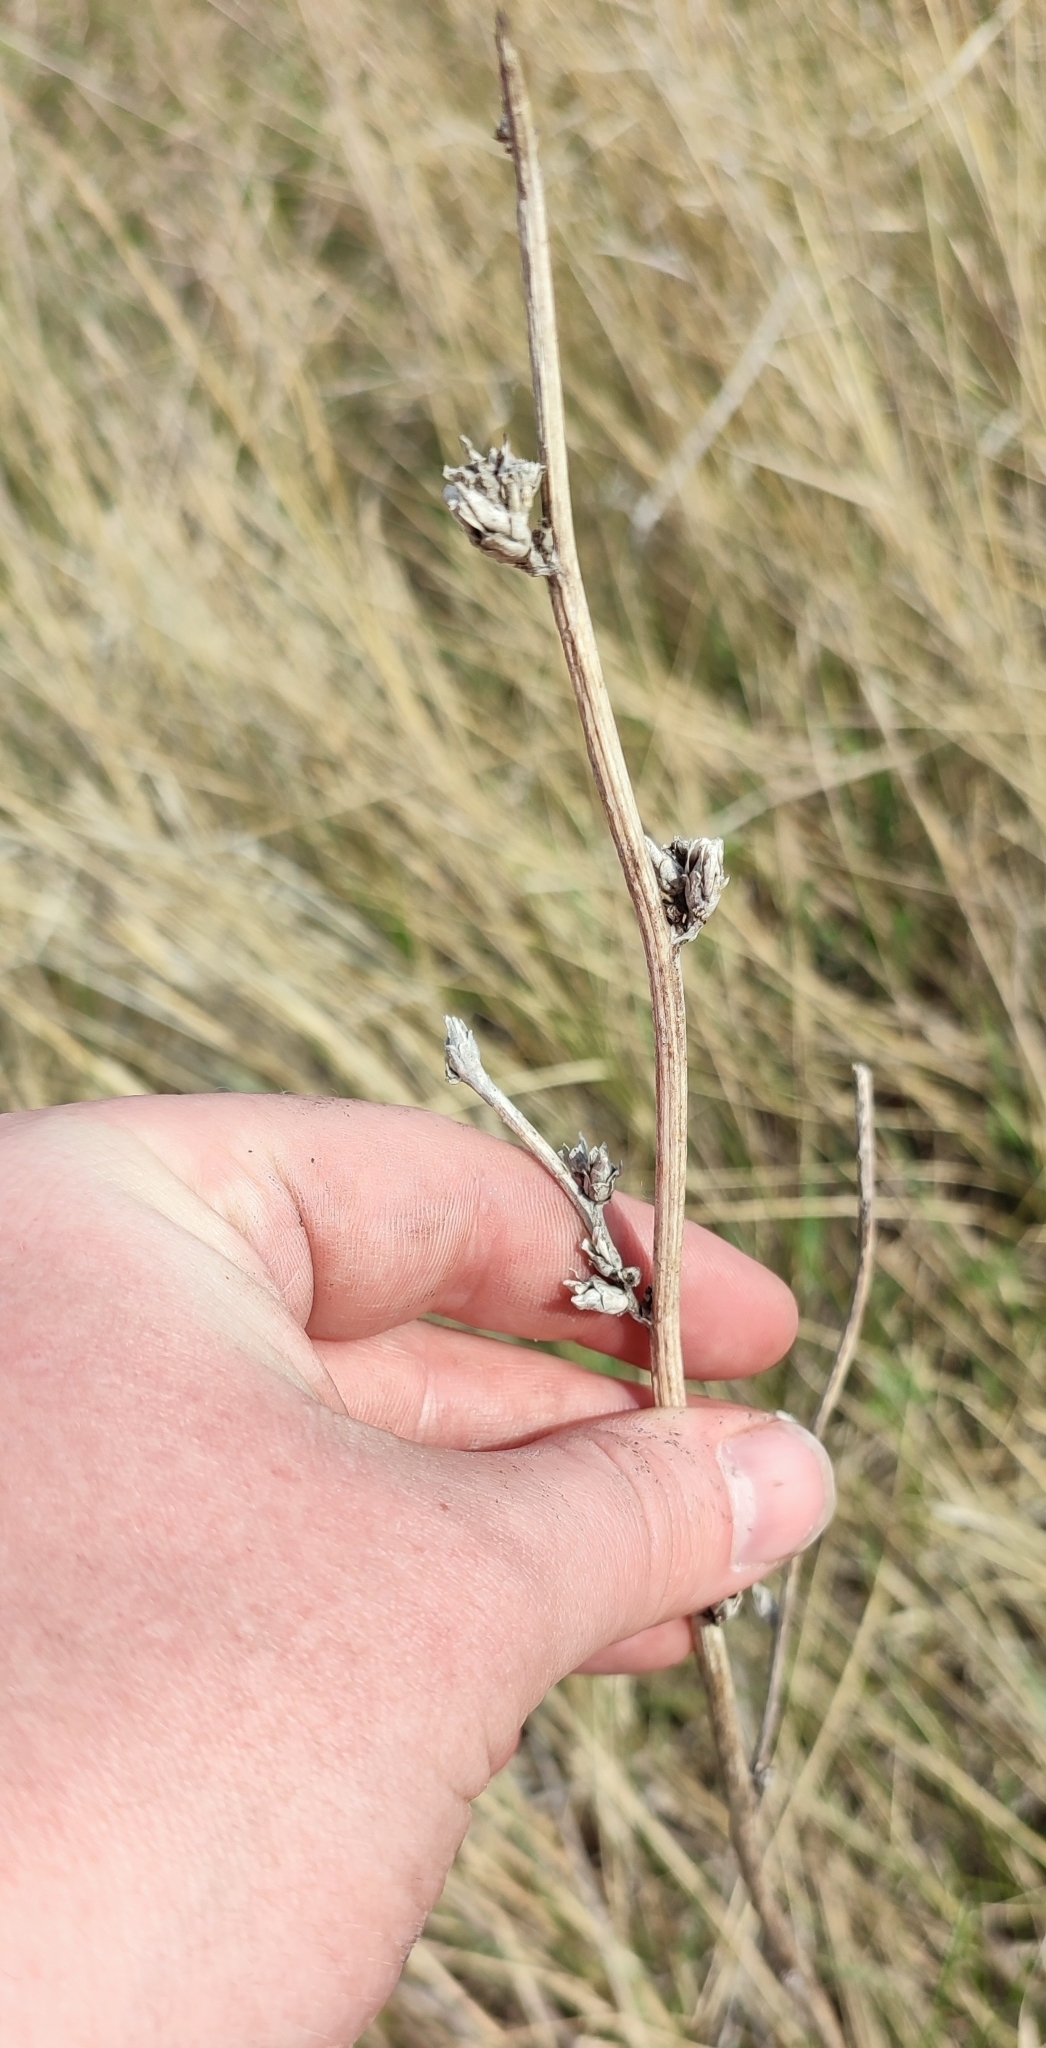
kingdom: Plantae
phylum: Tracheophyta
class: Magnoliopsida
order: Asterales
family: Asteraceae
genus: Cichorium
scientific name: Cichorium intybus
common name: Chicory
